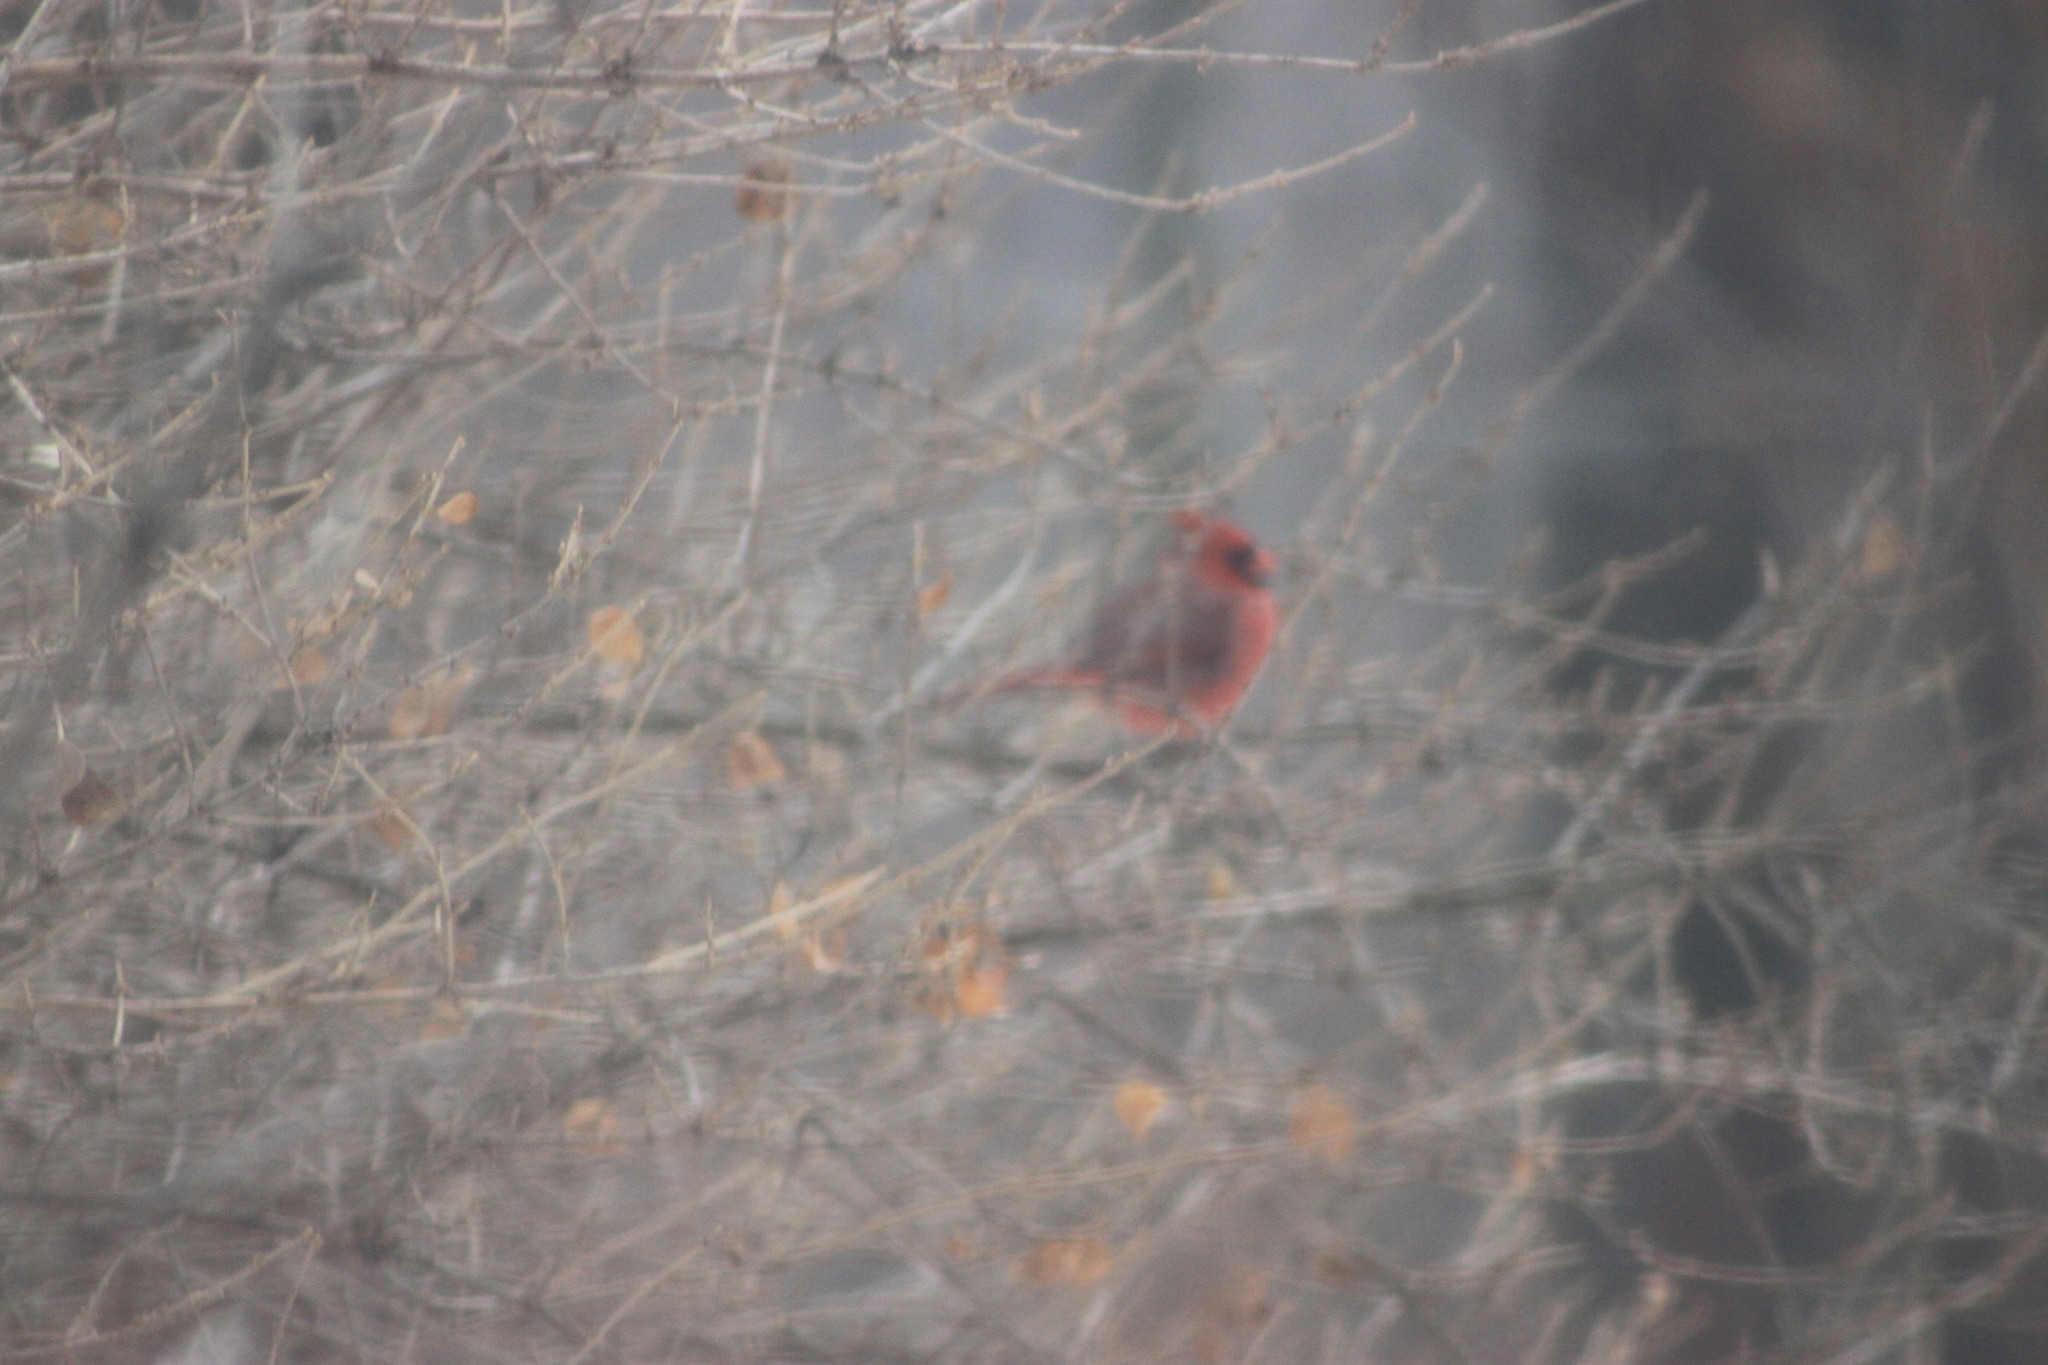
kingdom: Animalia
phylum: Chordata
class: Aves
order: Passeriformes
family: Cardinalidae
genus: Cardinalis
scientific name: Cardinalis cardinalis
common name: Northern cardinal
